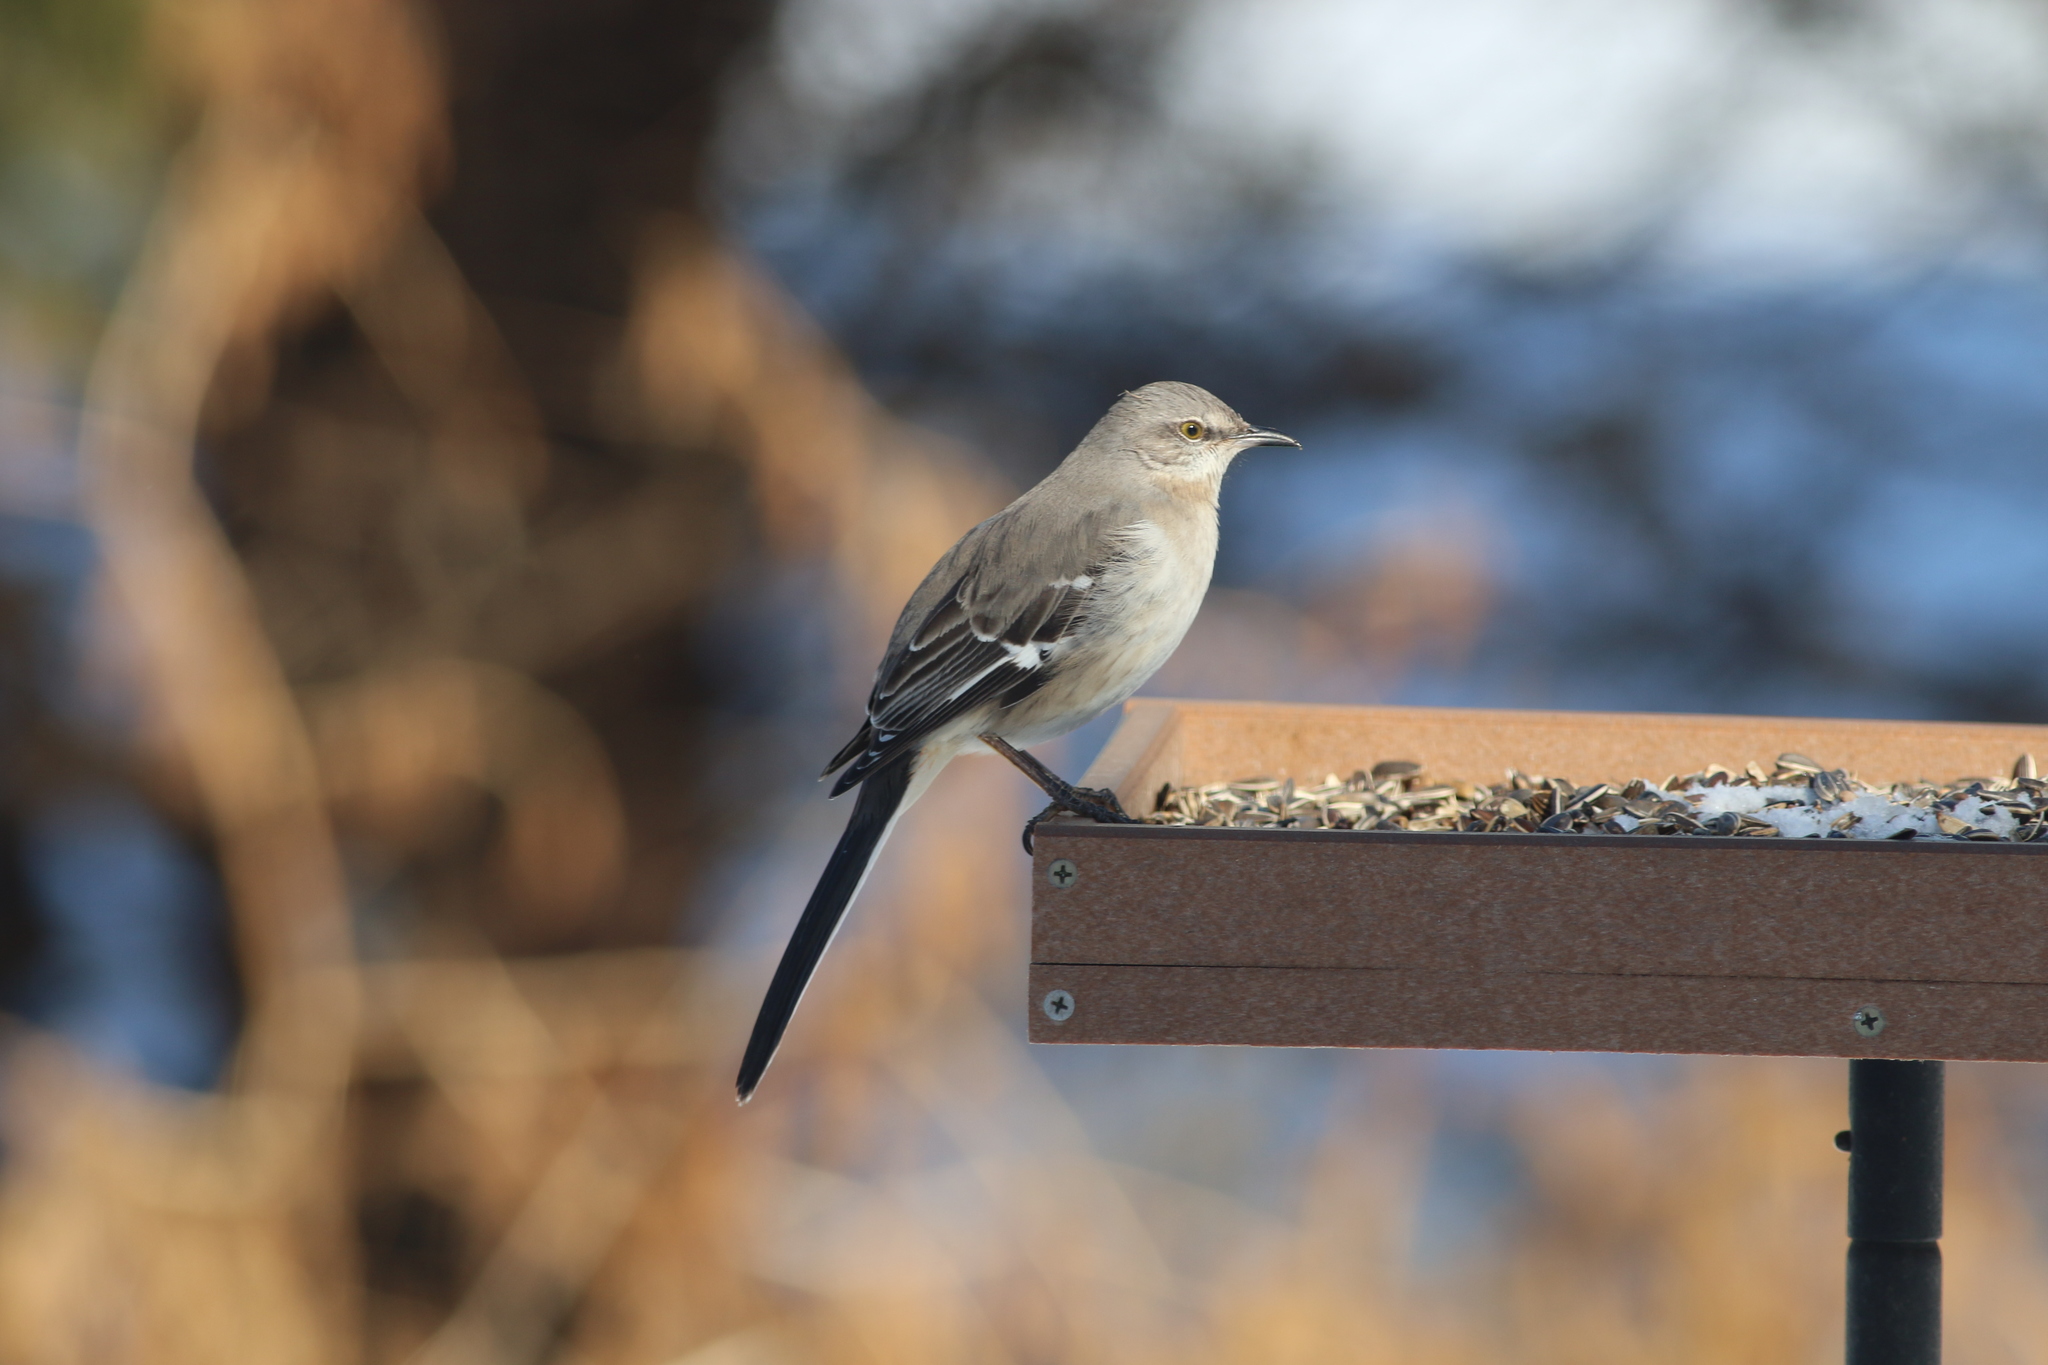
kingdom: Animalia
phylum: Chordata
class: Aves
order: Passeriformes
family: Mimidae
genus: Mimus
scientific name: Mimus polyglottos
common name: Northern mockingbird
